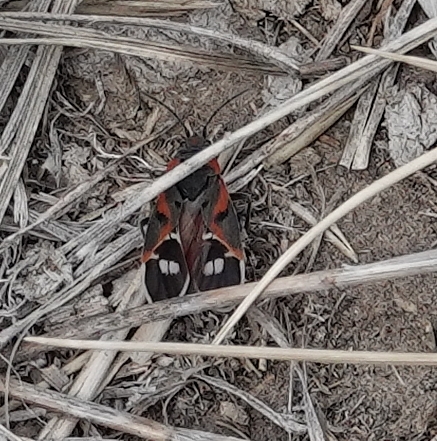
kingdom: Animalia
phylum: Arthropoda
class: Insecta
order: Hemiptera
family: Lygaeidae
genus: Lygaeus
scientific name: Lygaeus kalmii
